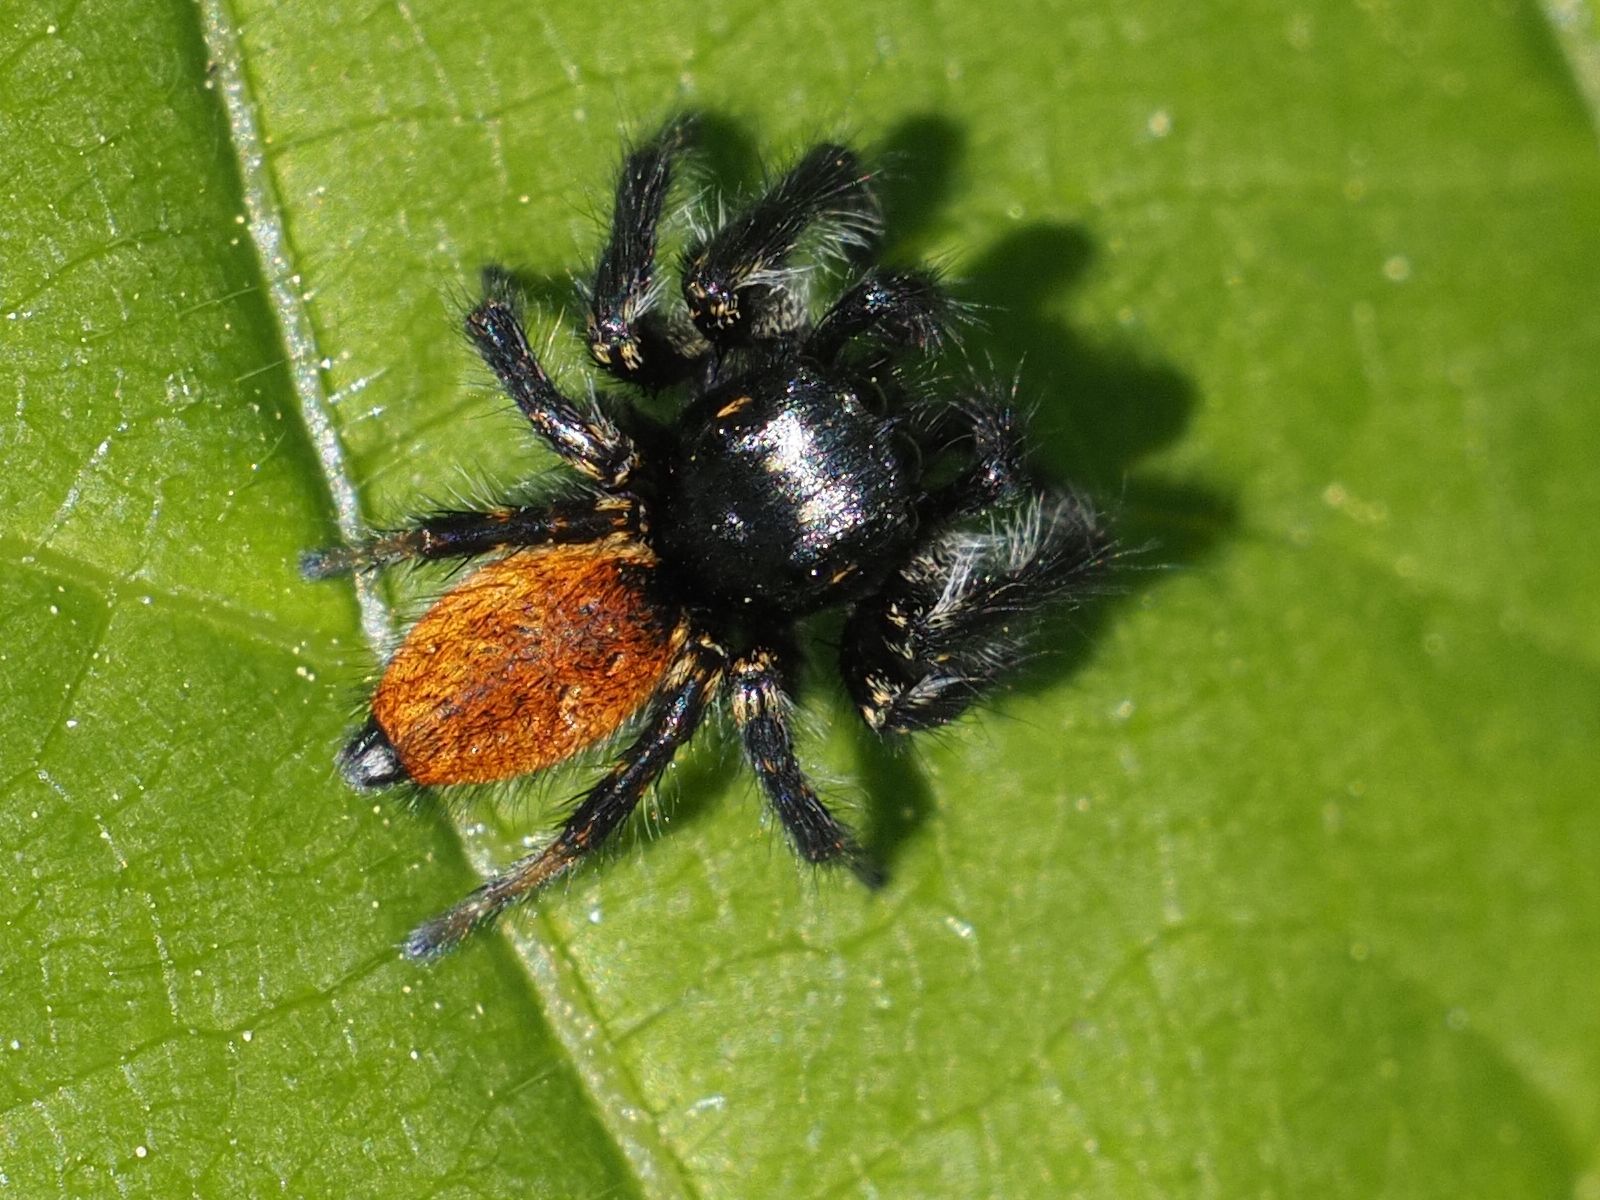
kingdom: Animalia
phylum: Arthropoda
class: Arachnida
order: Araneae
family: Salticidae
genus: Carrhotus
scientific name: Carrhotus xanthogramma
